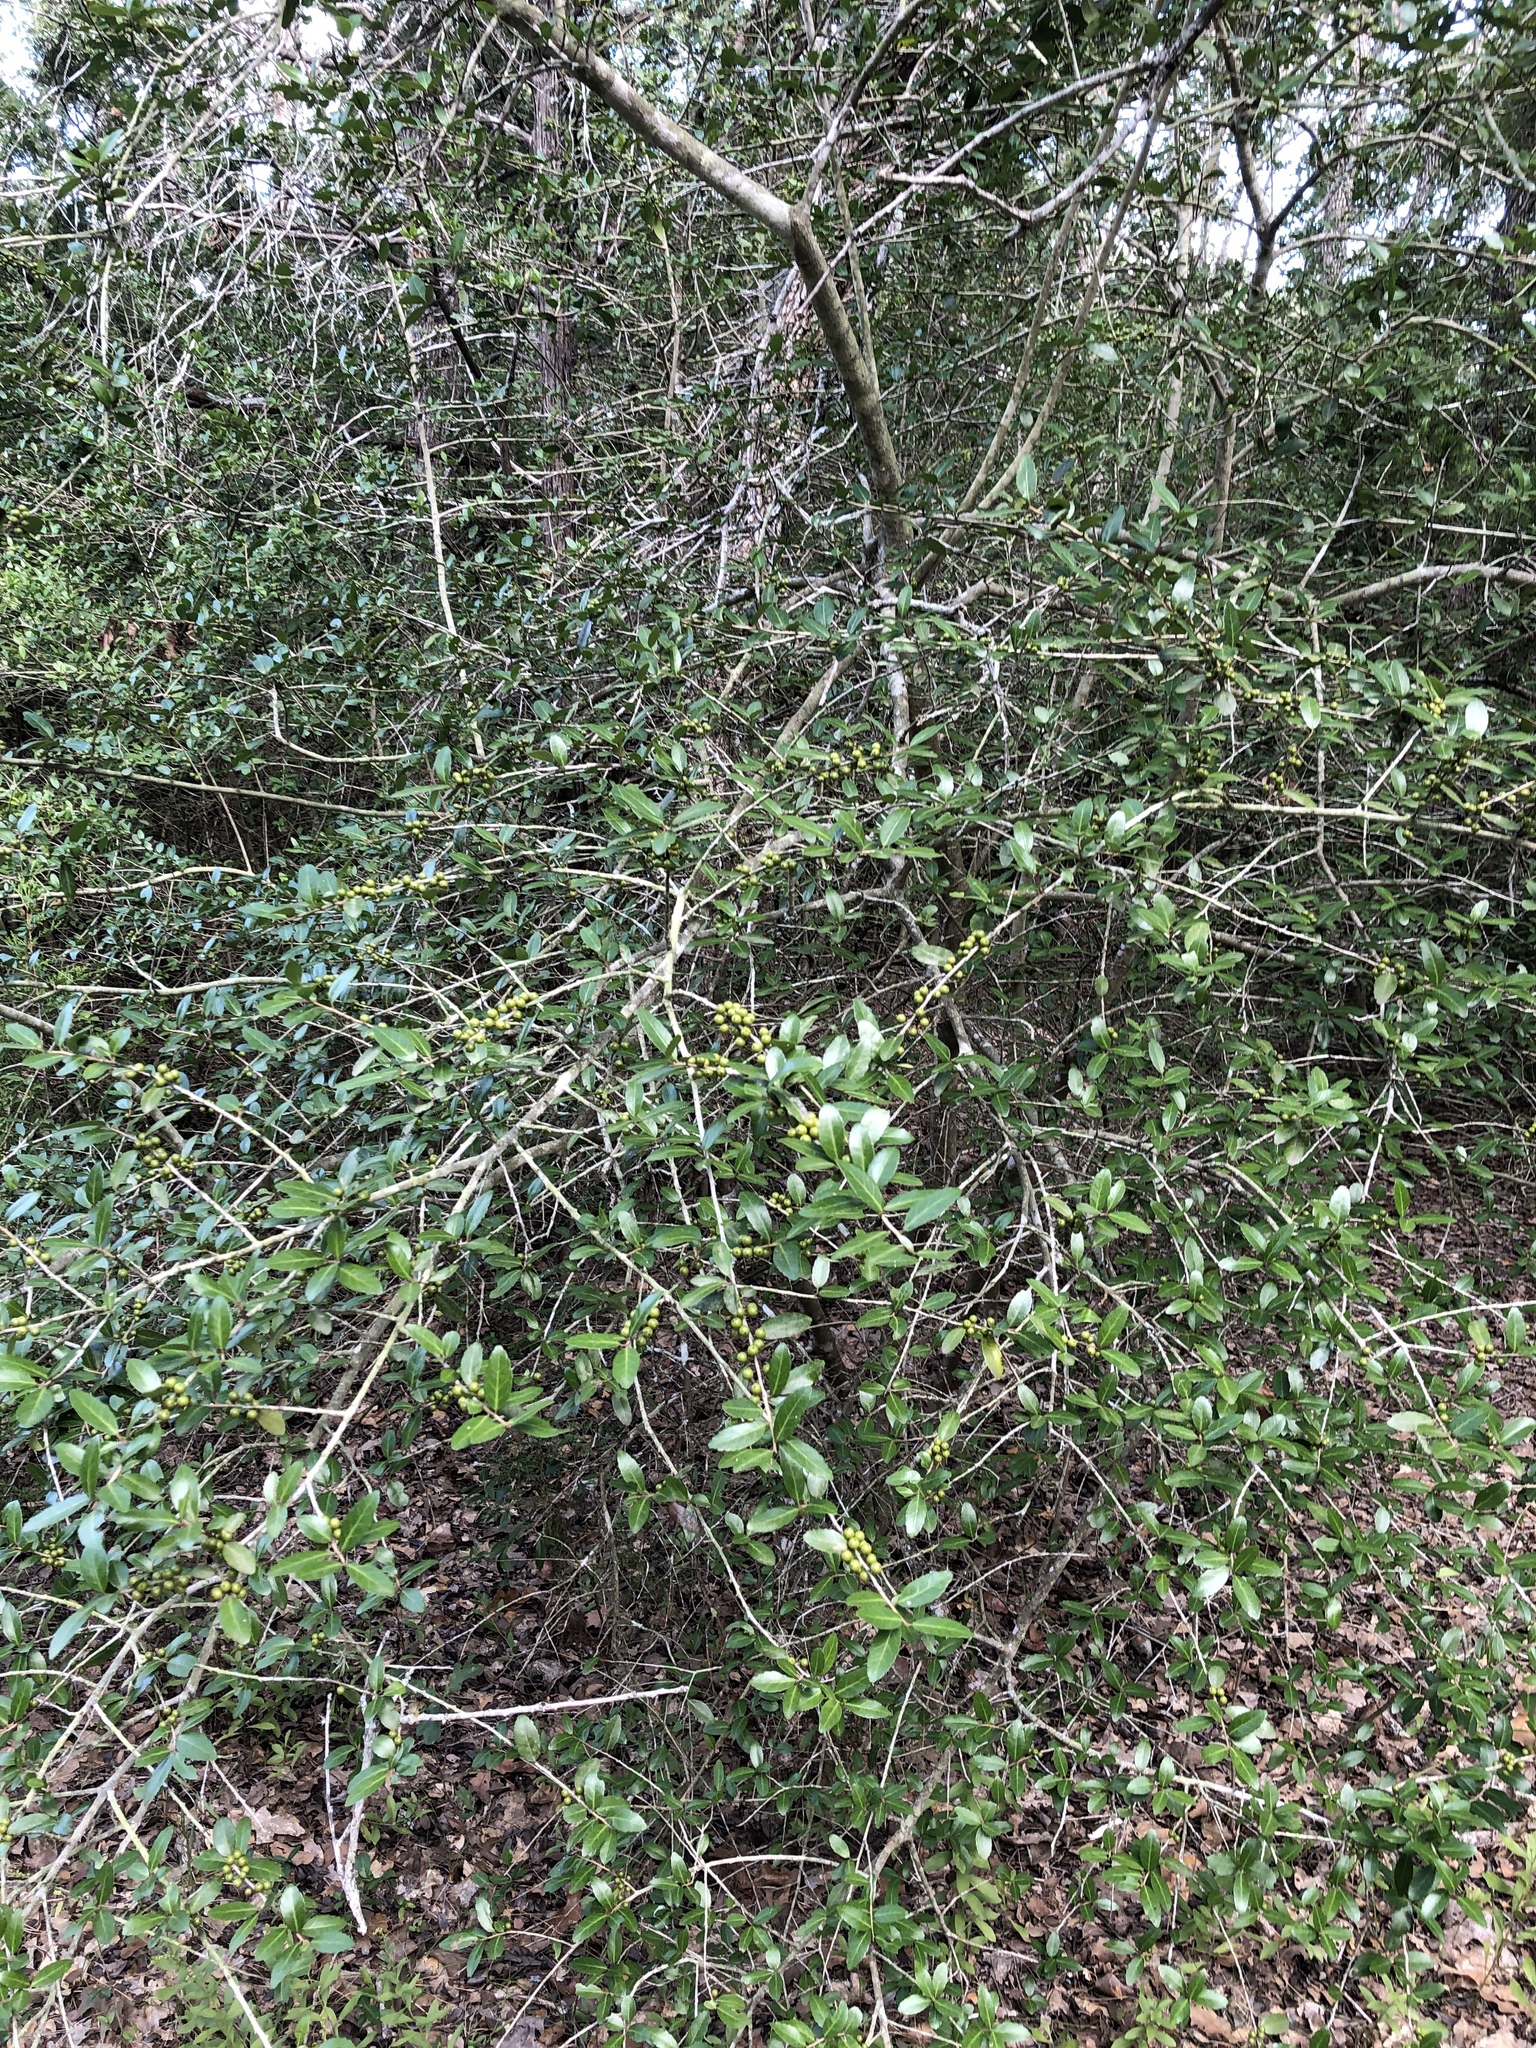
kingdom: Plantae
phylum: Tracheophyta
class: Magnoliopsida
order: Aquifoliales
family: Aquifoliaceae
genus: Ilex
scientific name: Ilex vomitoria
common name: Yaupon holly
